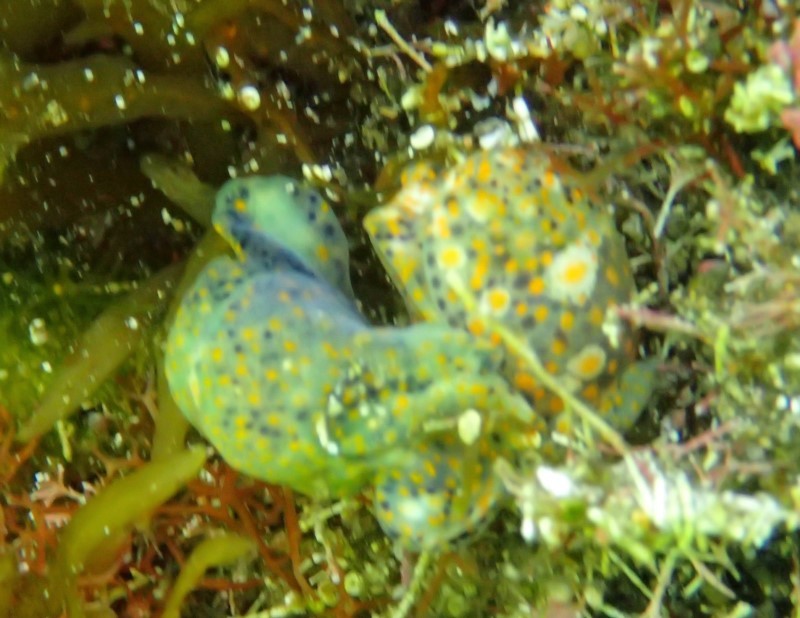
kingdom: Animalia
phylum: Mollusca
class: Gastropoda
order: Cephalaspidea
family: Haminoeidae
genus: Lamprohaminoea
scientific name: Lamprohaminoea ovalis
